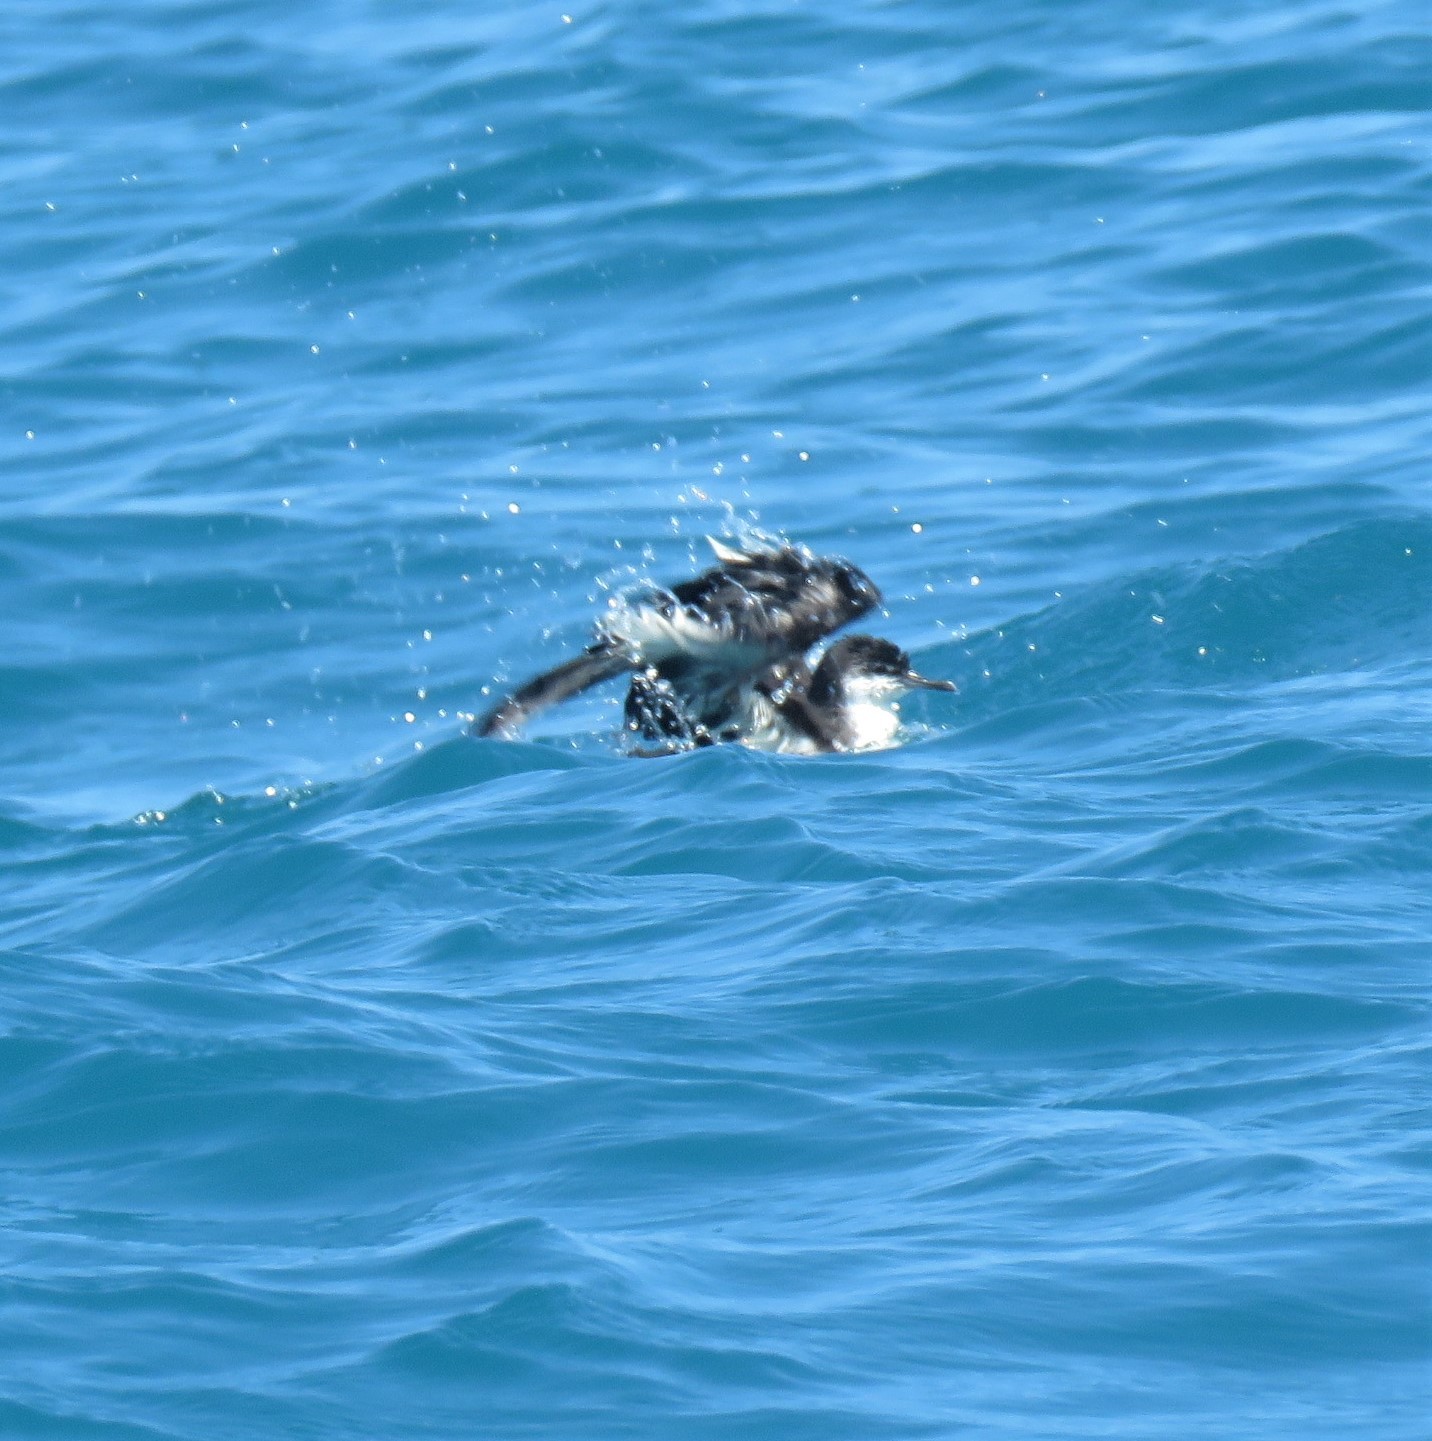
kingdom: Animalia
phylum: Chordata
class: Aves
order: Procellariiformes
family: Procellariidae
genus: Puffinus
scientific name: Puffinus subalaris
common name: Galapagos shearwater
